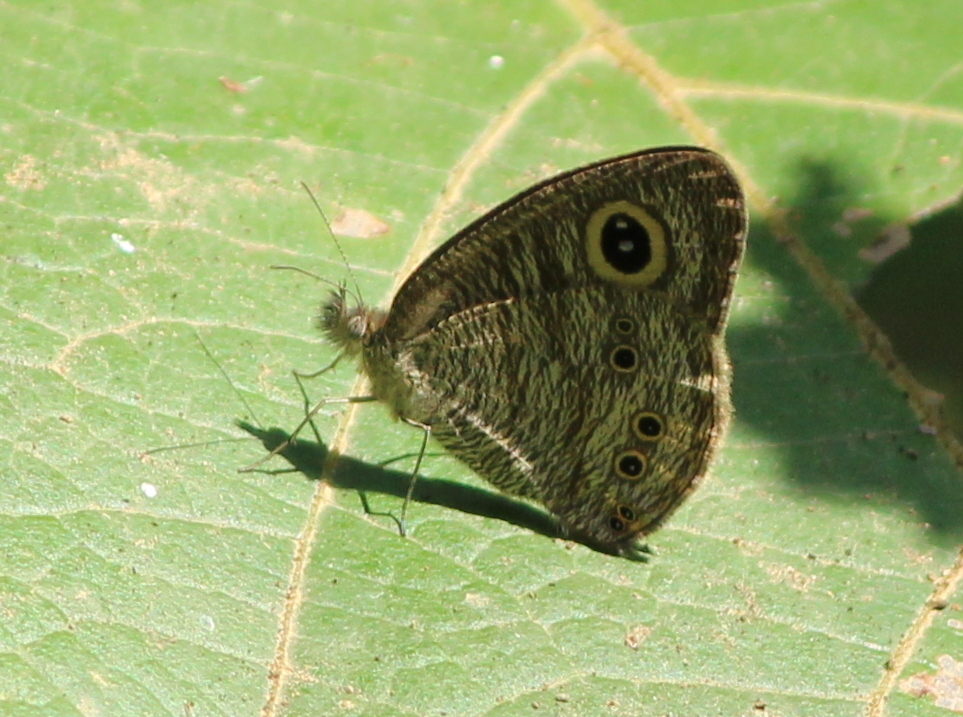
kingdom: Animalia
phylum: Arthropoda
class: Insecta
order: Lepidoptera
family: Nymphalidae
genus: Ypthima
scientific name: Ypthima baldus
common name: Common five-ring
